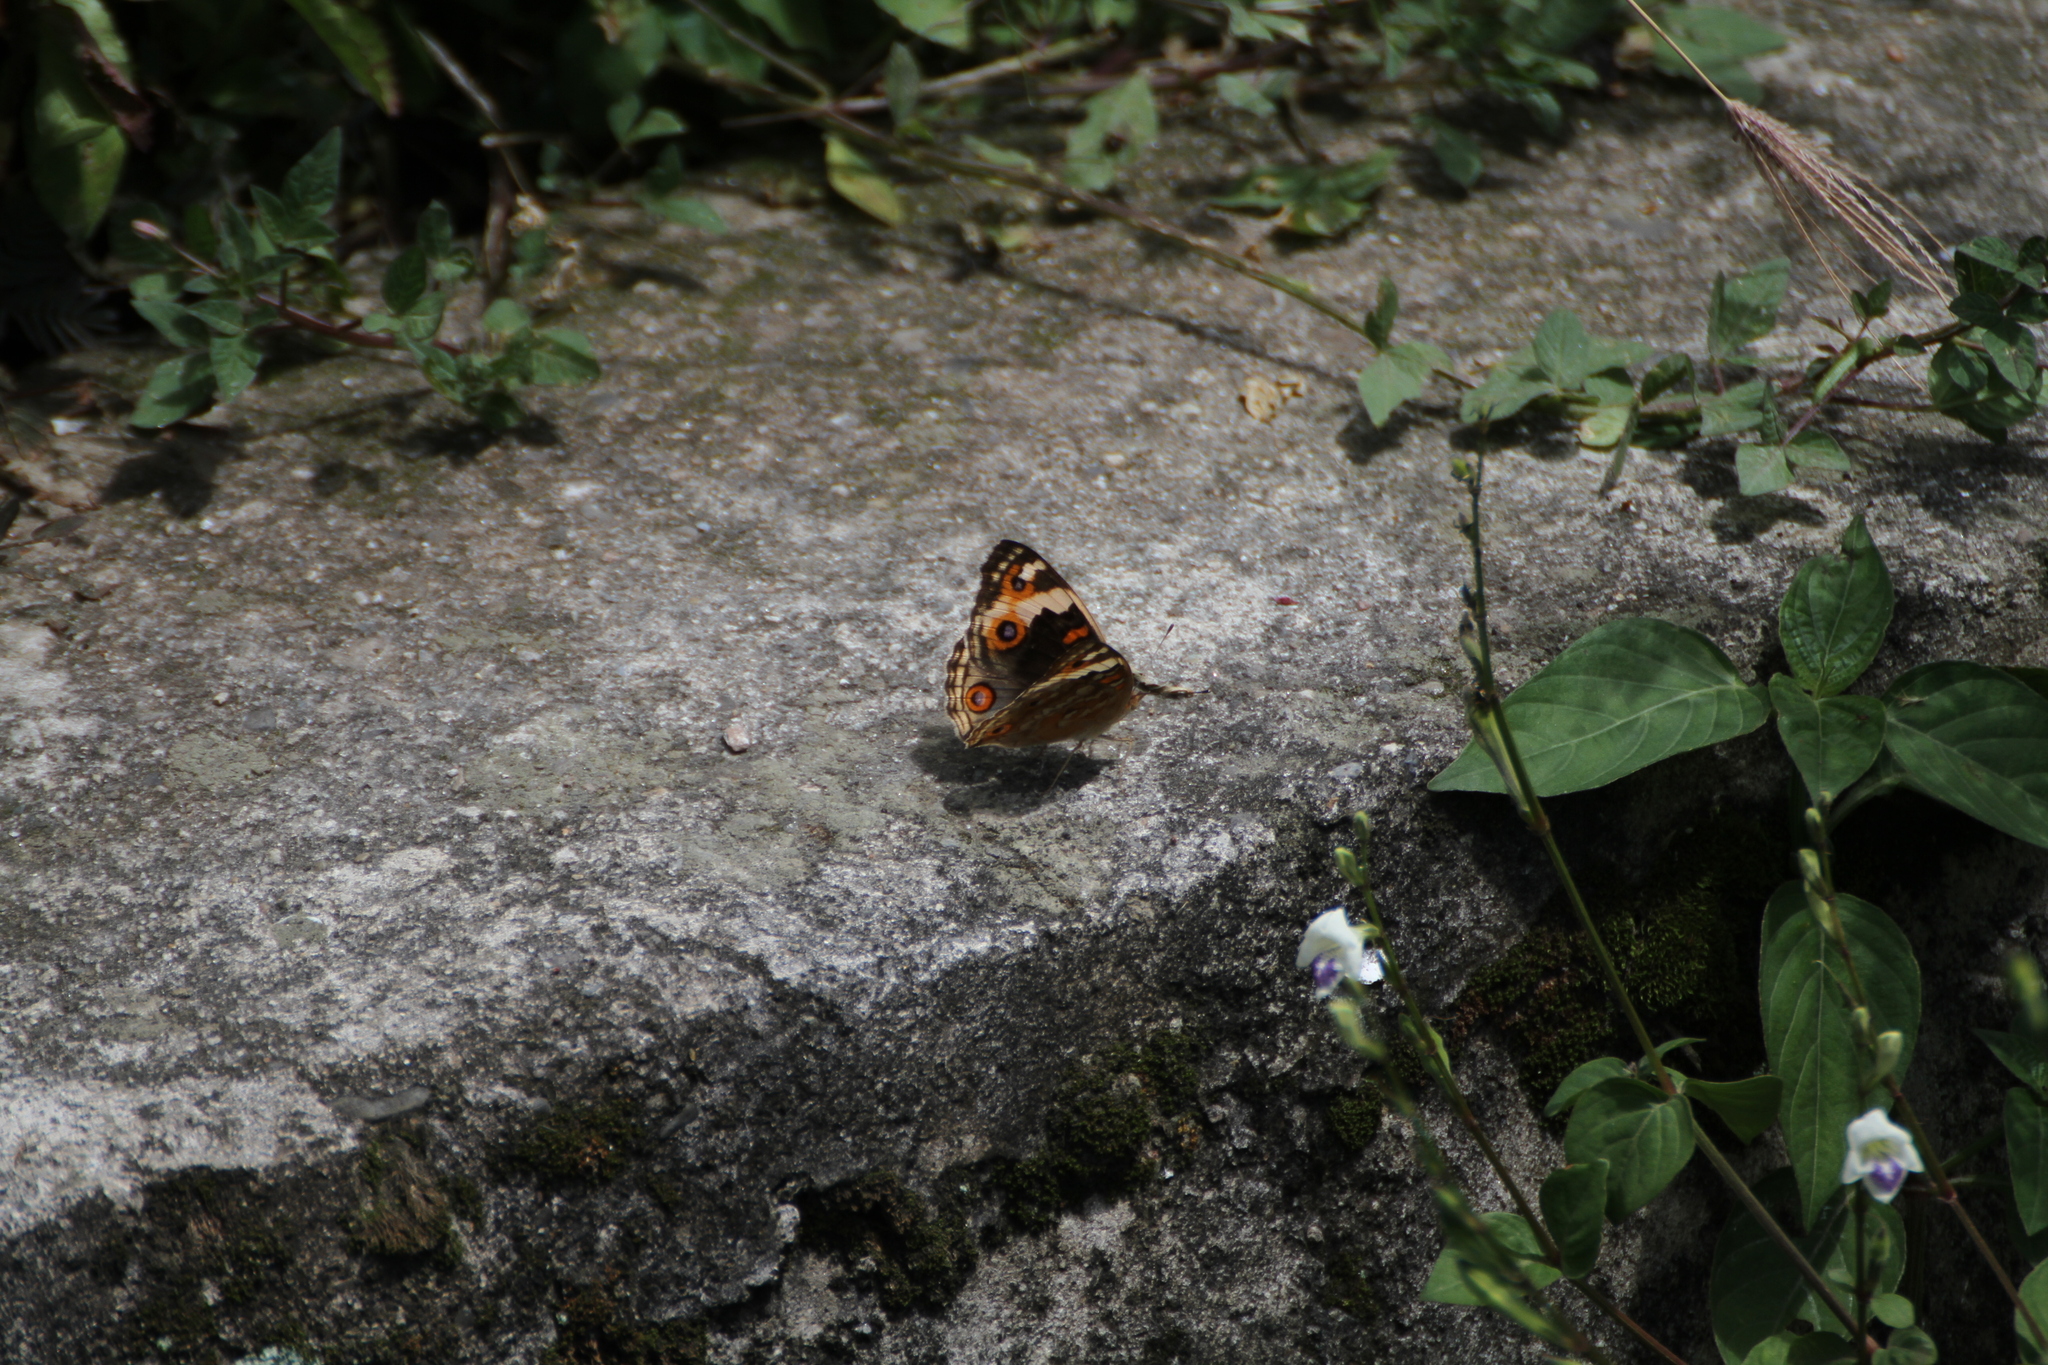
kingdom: Animalia
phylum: Arthropoda
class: Insecta
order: Lepidoptera
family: Nymphalidae
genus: Junonia
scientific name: Junonia orithya
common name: Blue pansy
